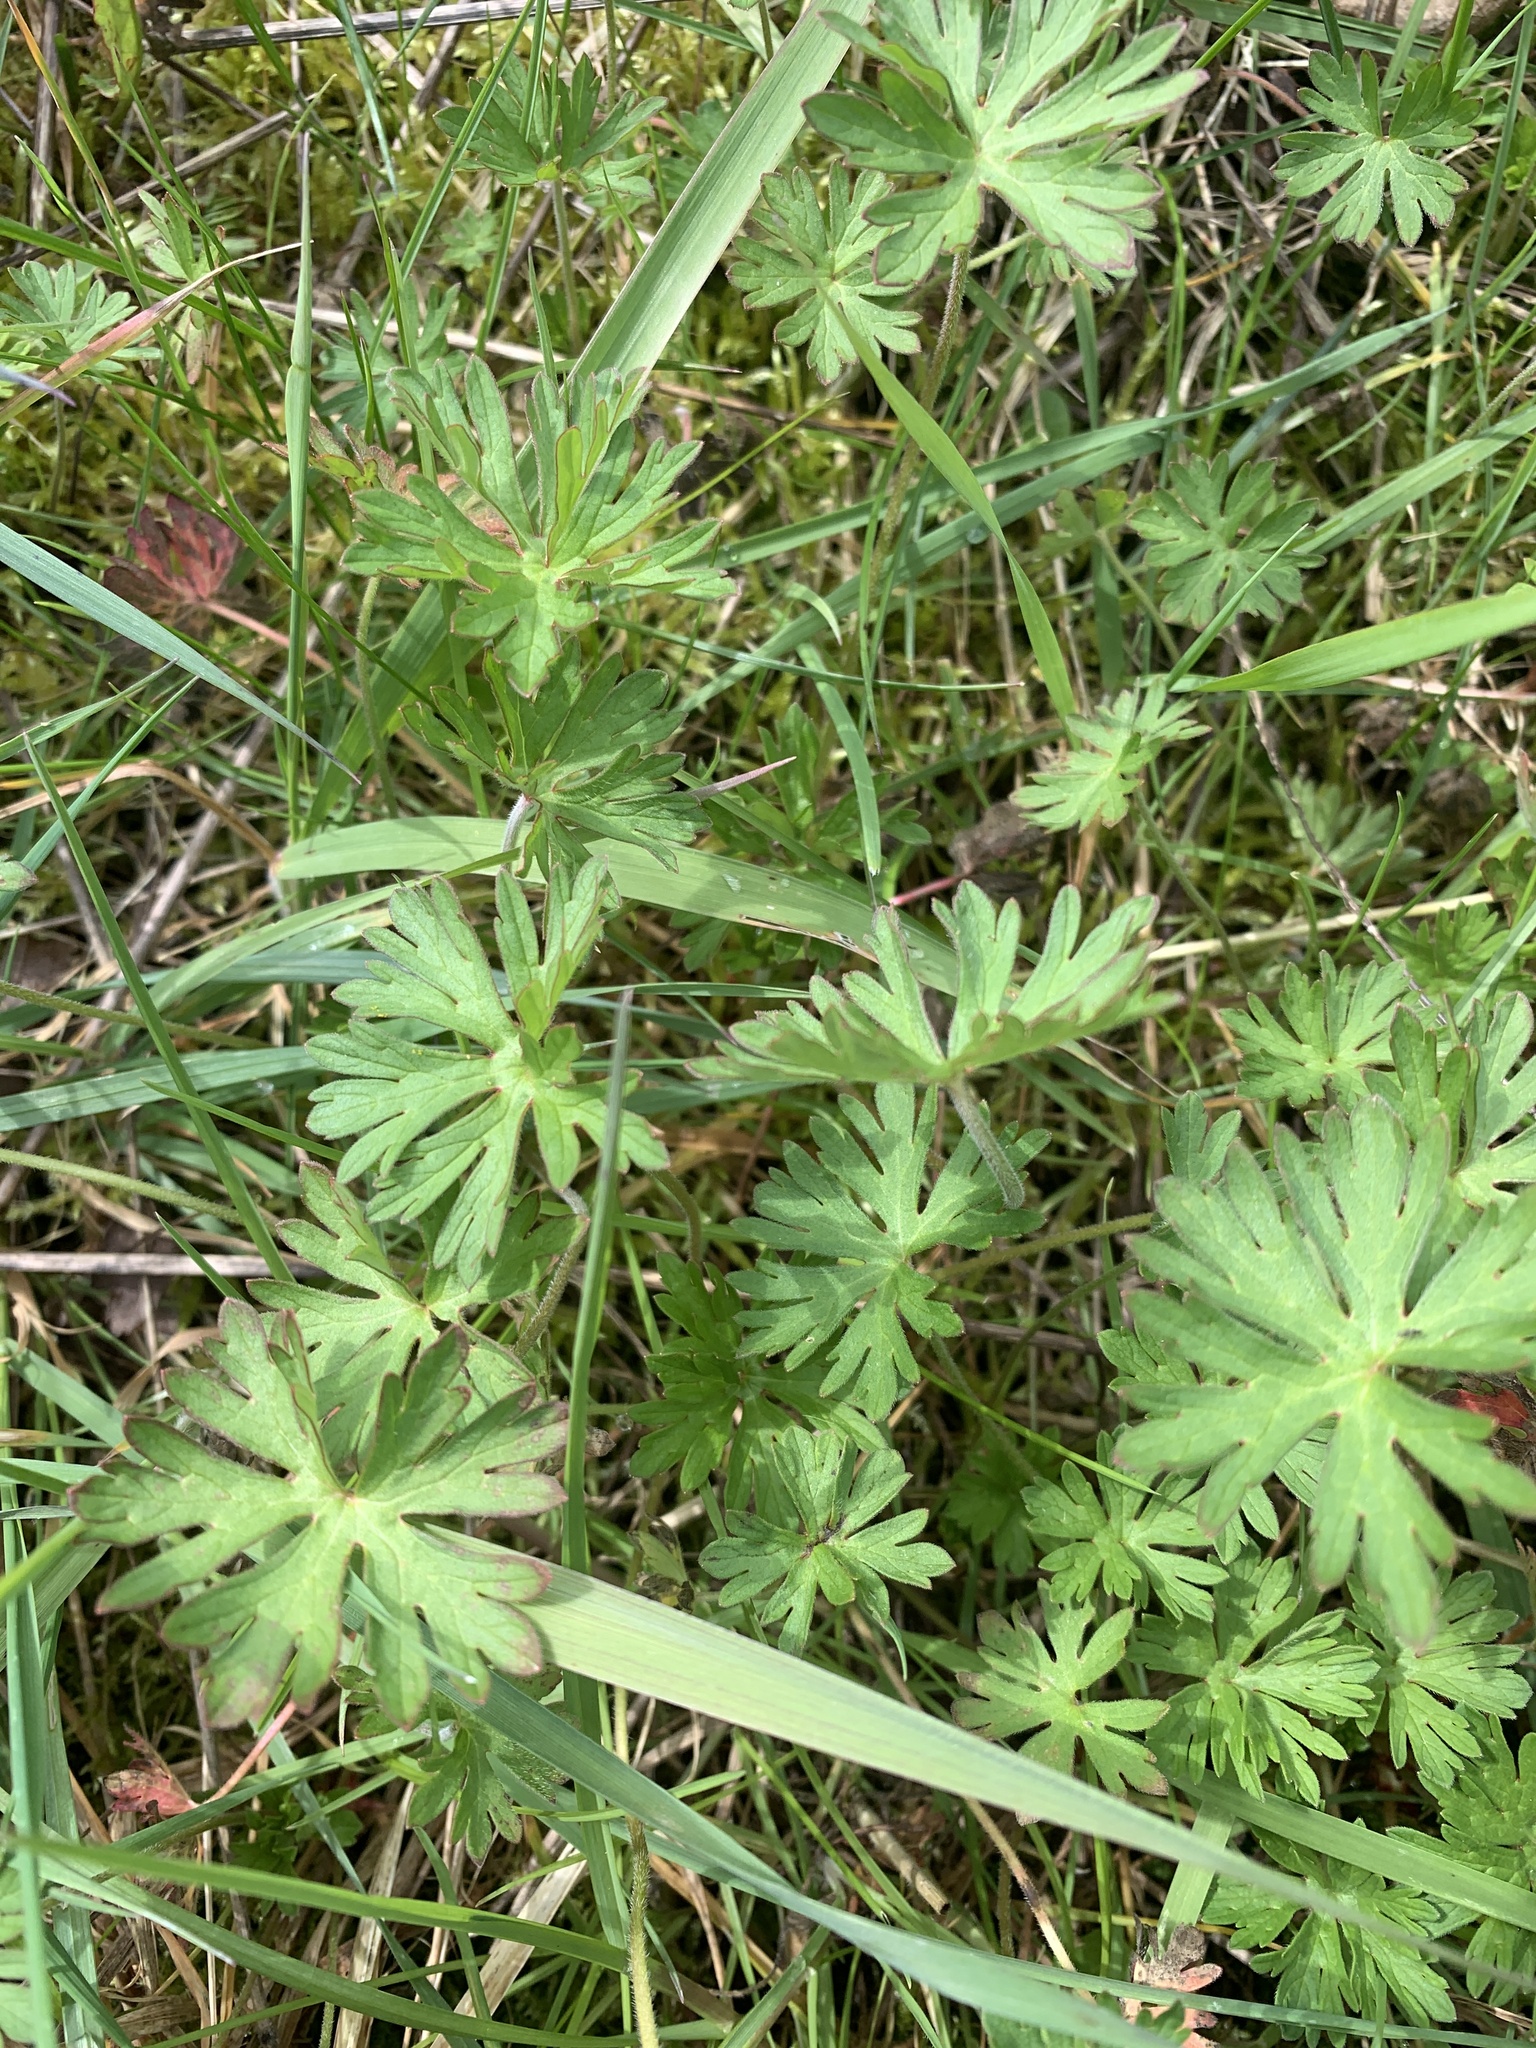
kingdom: Plantae
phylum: Tracheophyta
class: Magnoliopsida
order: Geraniales
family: Geraniaceae
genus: Geranium
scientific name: Geranium dissectum
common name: Cut-leaved crane's-bill
